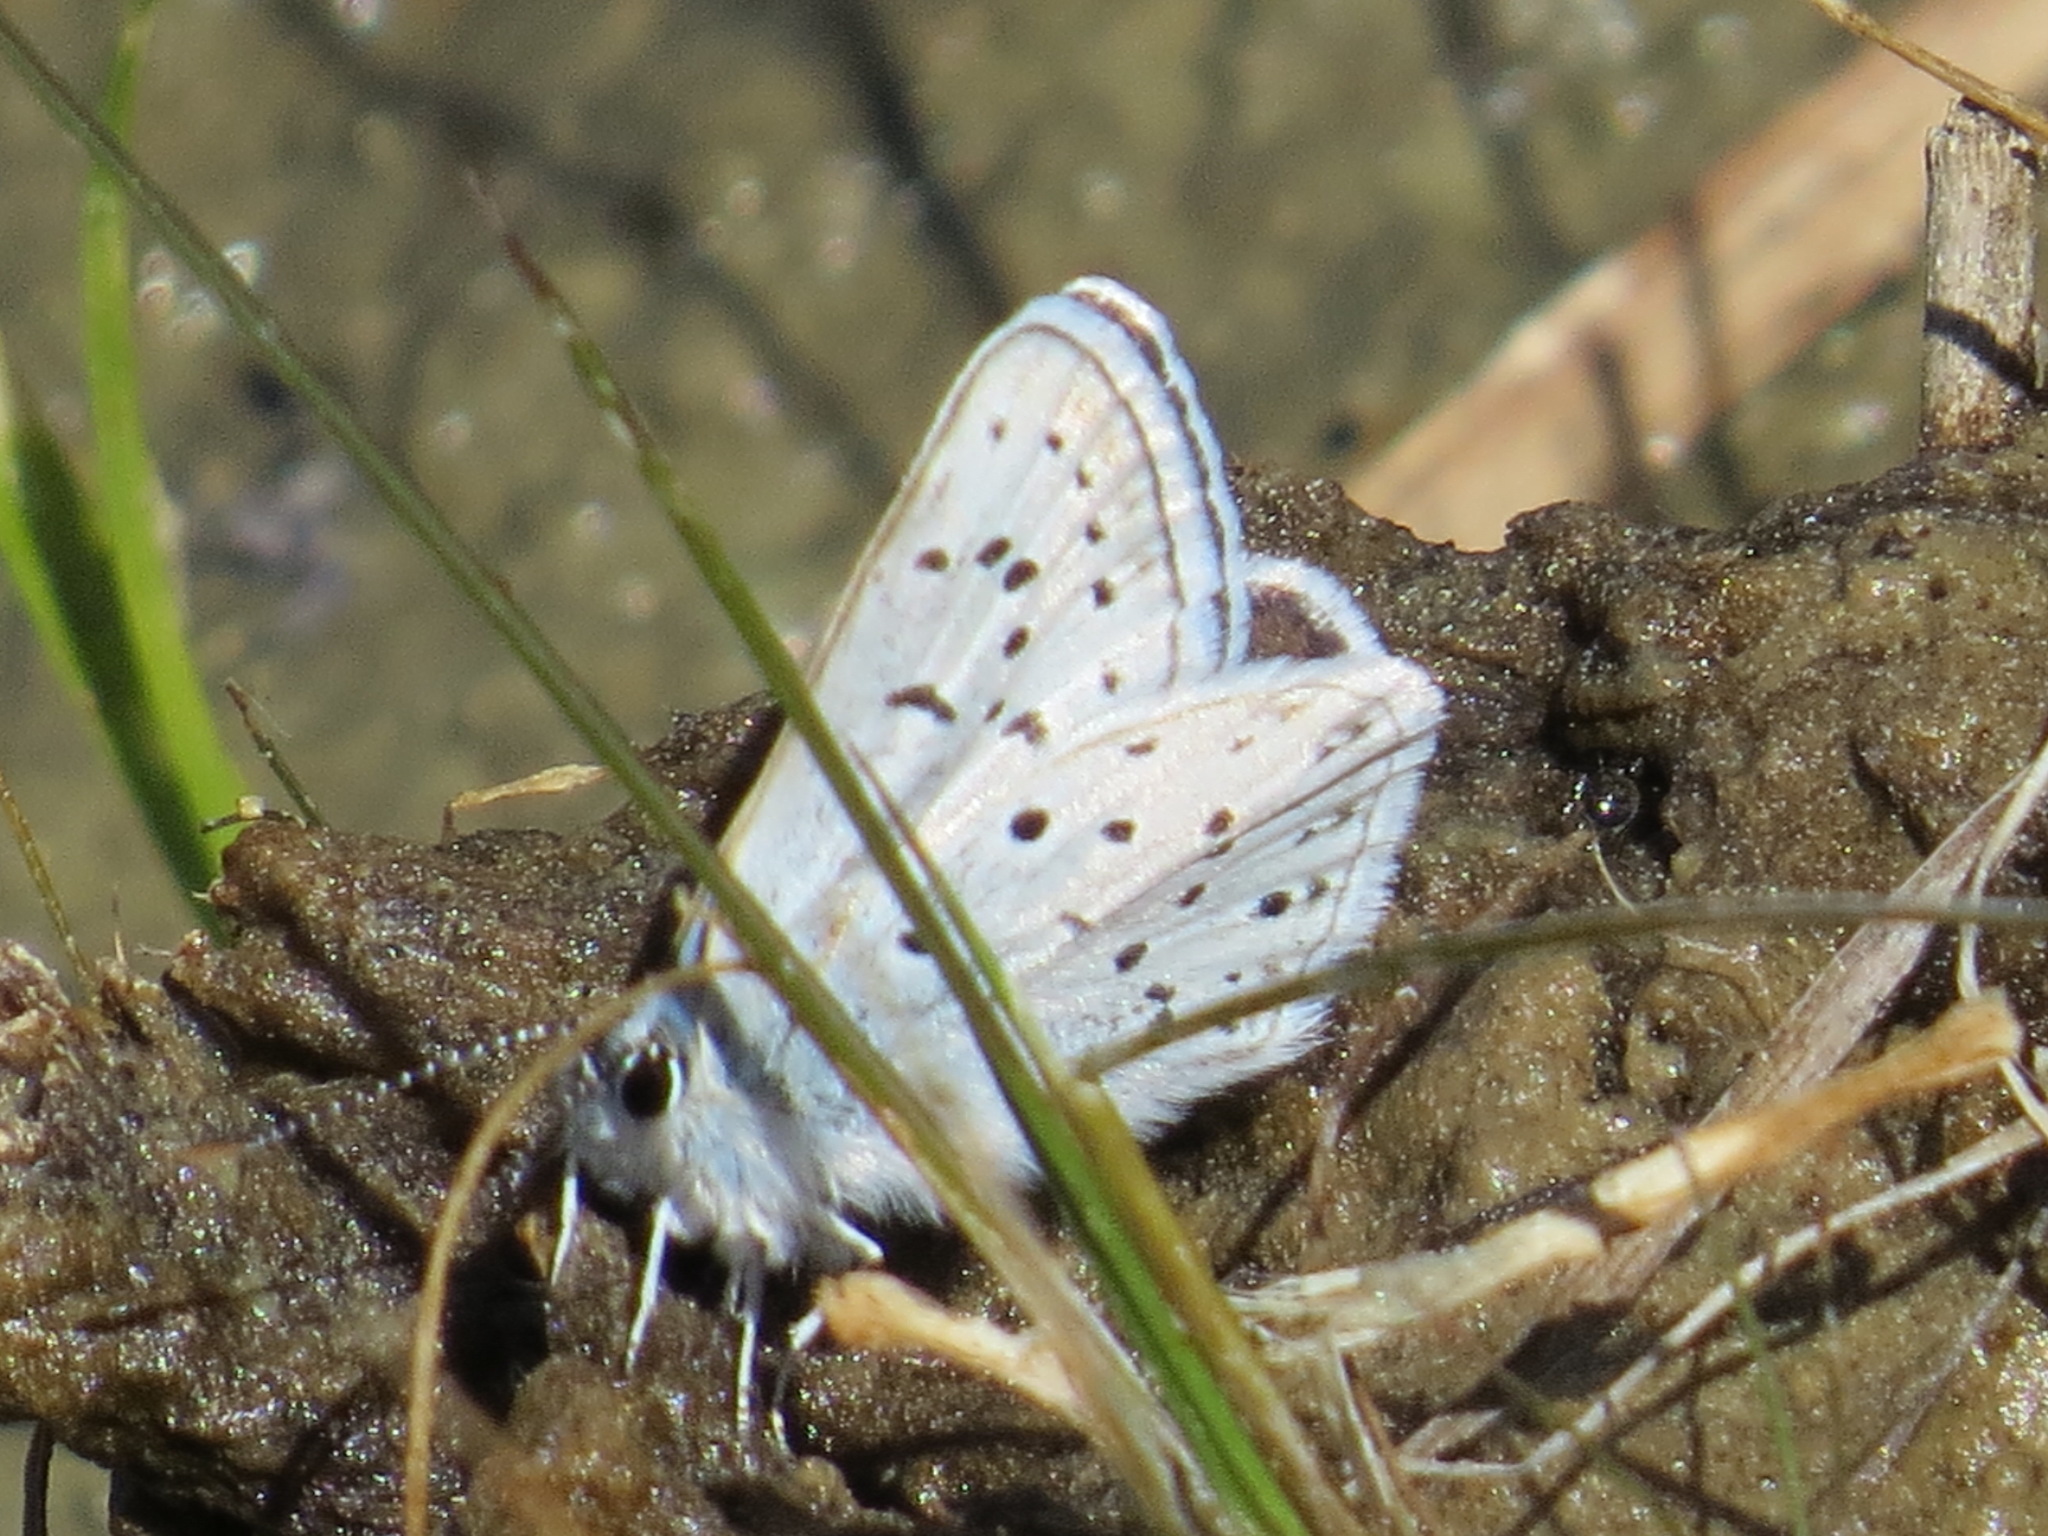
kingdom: Animalia
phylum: Arthropoda
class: Insecta
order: Lepidoptera
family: Lycaenidae
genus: Icaricia
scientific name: Icaricia saepiolus
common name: Greenish blue
